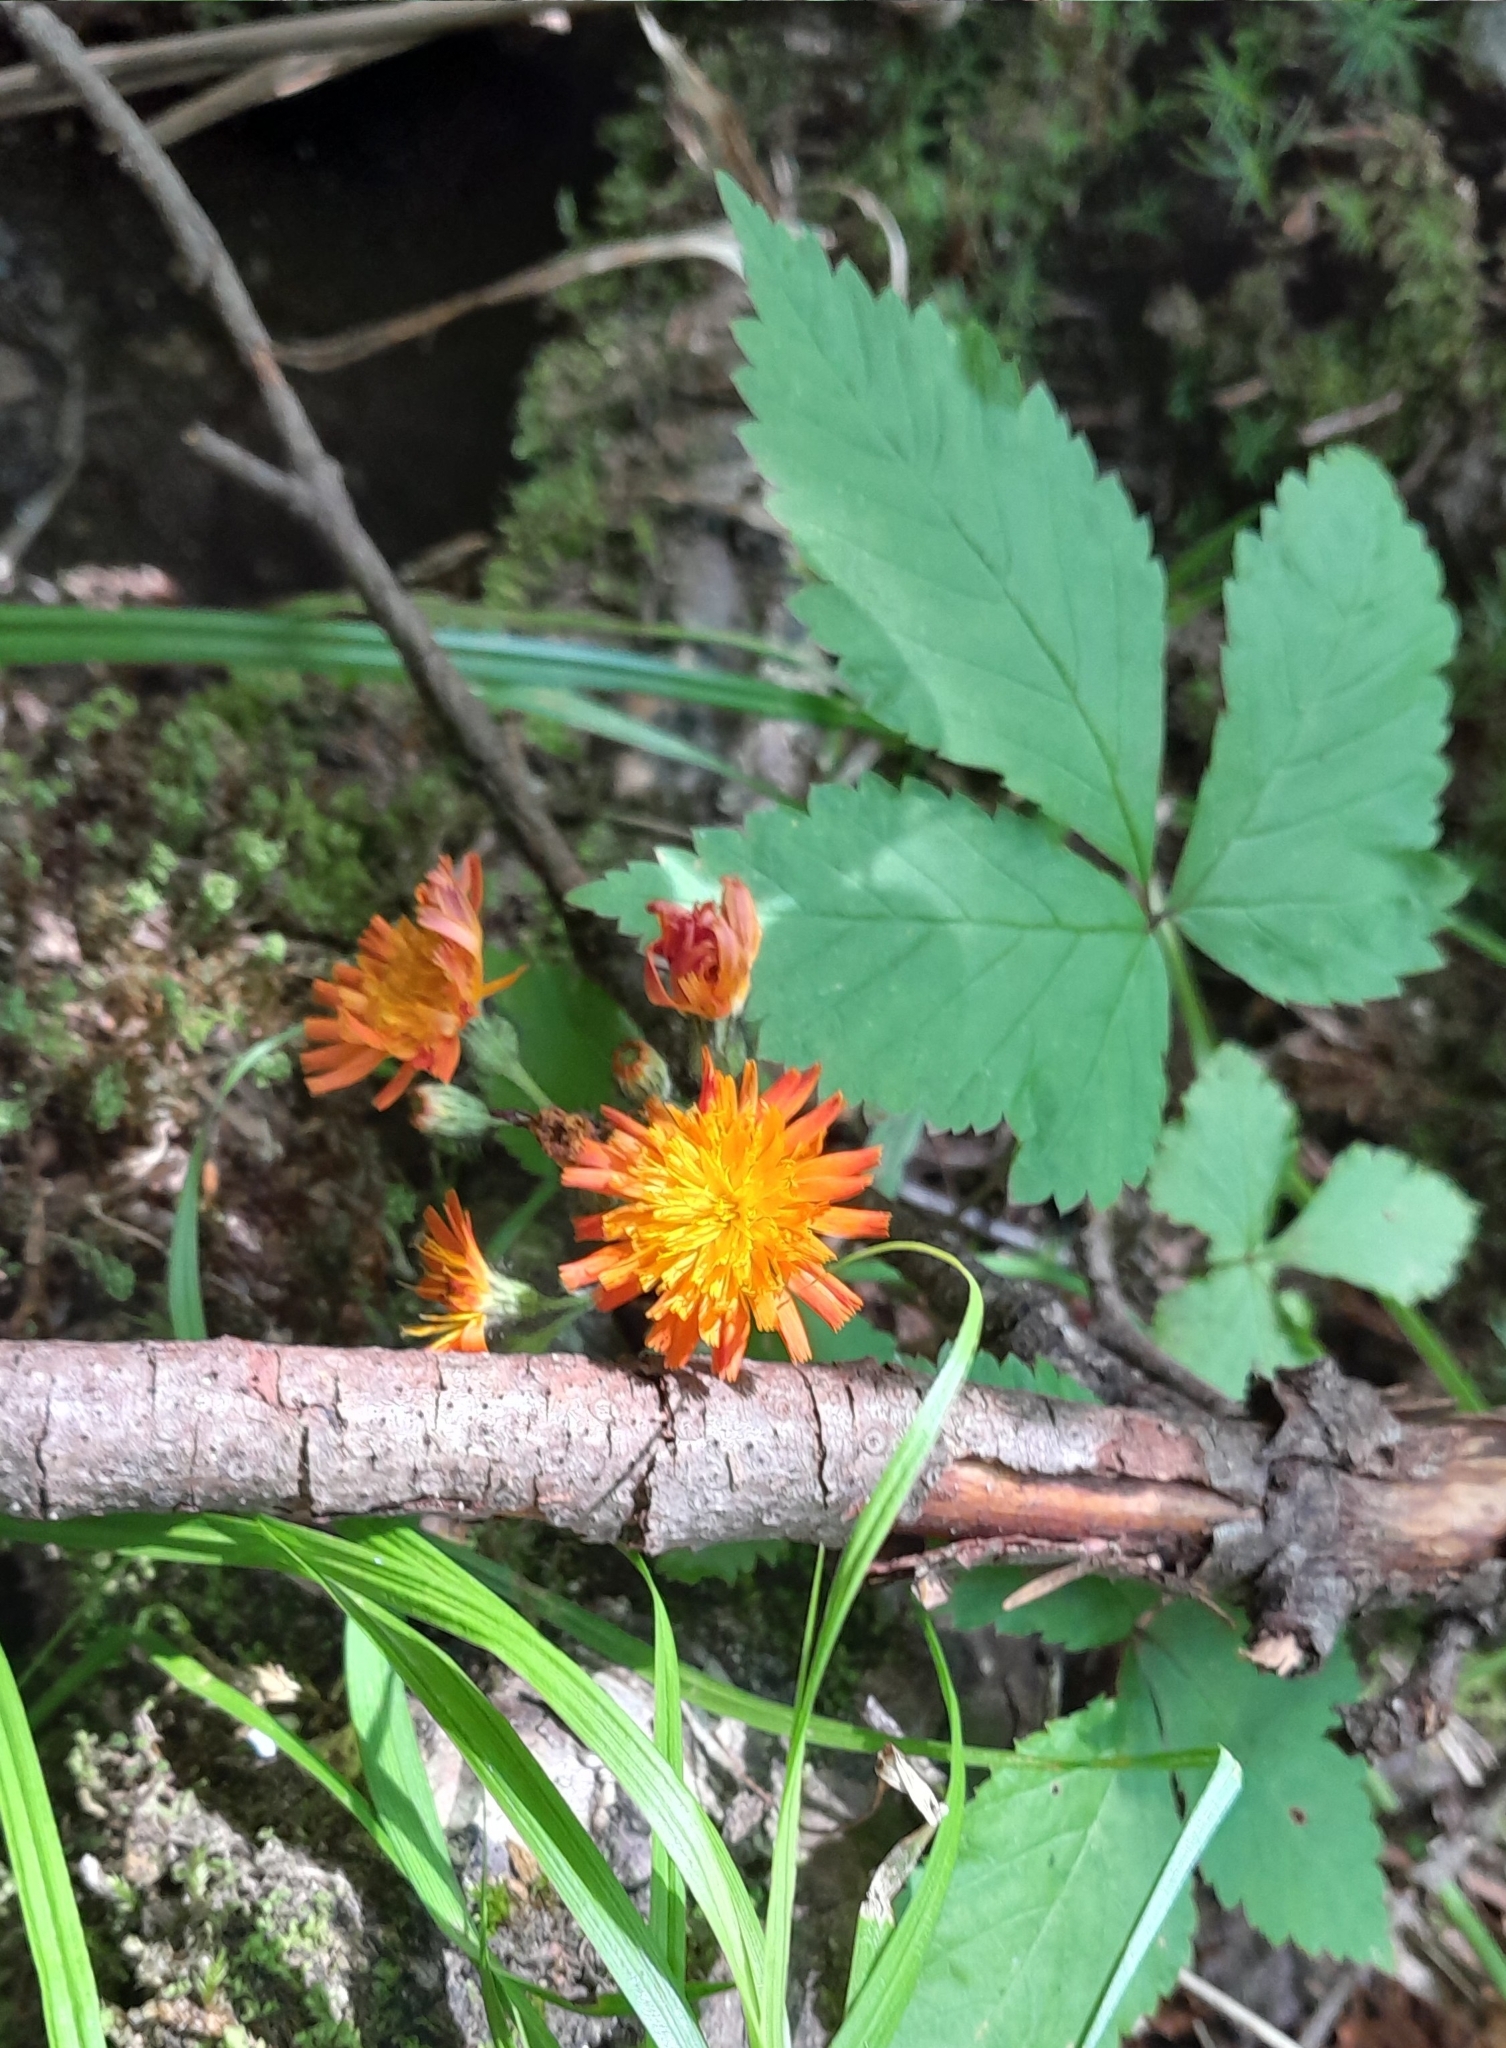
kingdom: Plantae
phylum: Tracheophyta
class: Magnoliopsida
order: Asterales
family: Asteraceae
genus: Pilosella
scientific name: Pilosella aurantiaca
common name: Fox-and-cubs
